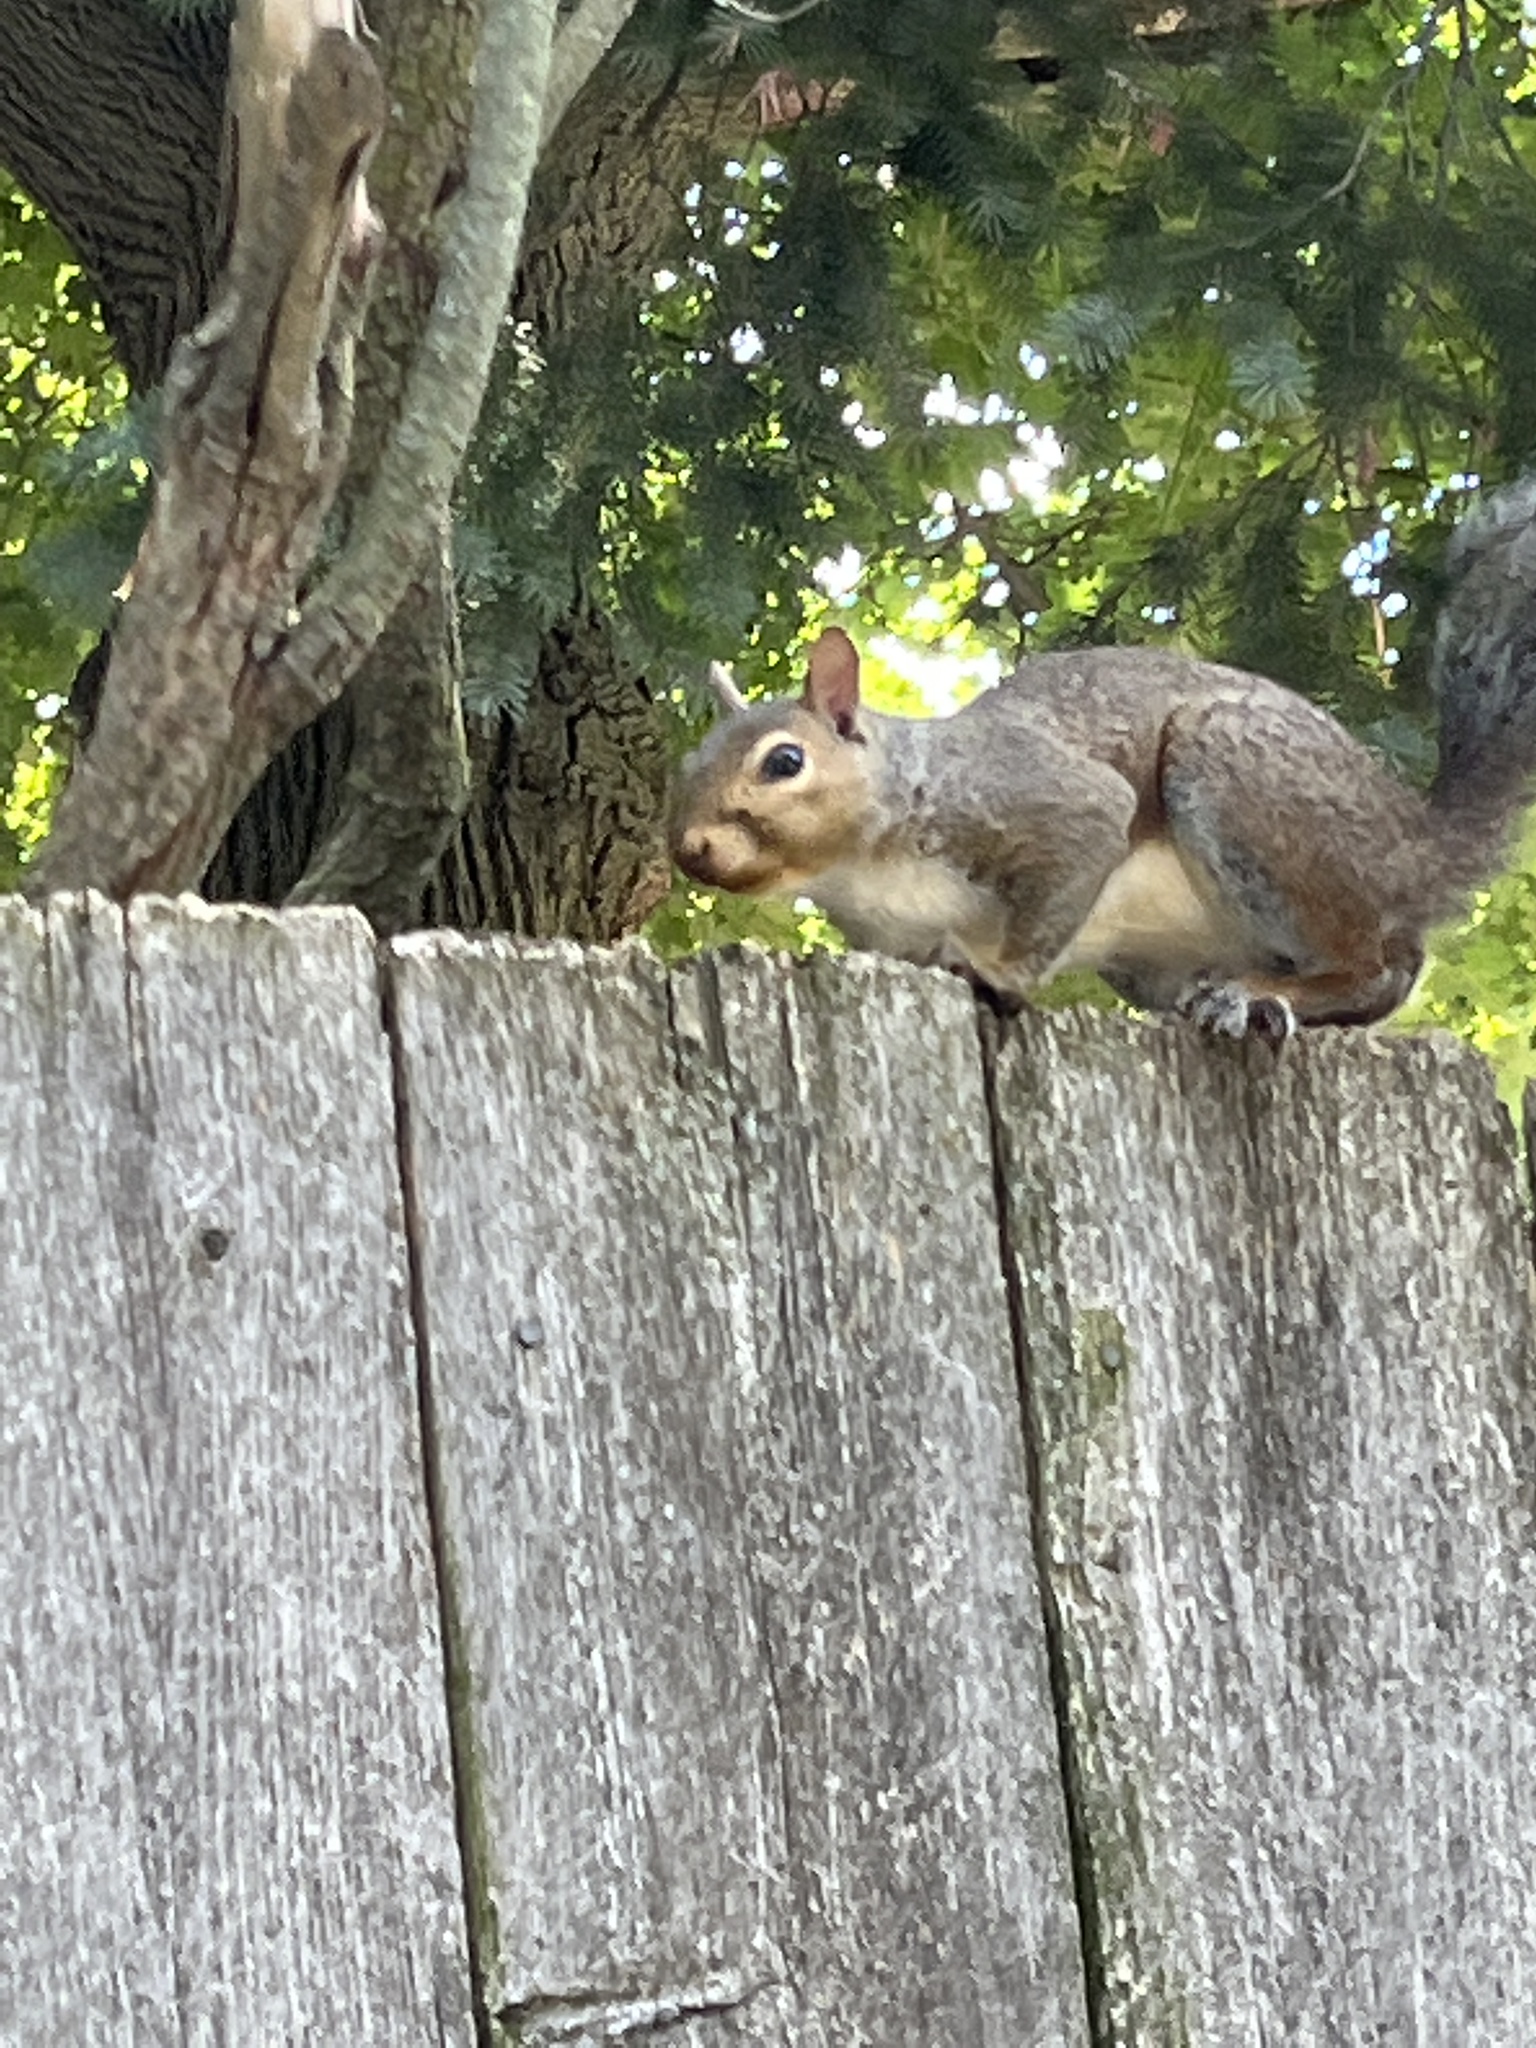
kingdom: Animalia
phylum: Chordata
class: Mammalia
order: Rodentia
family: Sciuridae
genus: Sciurus
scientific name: Sciurus carolinensis
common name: Eastern gray squirrel
